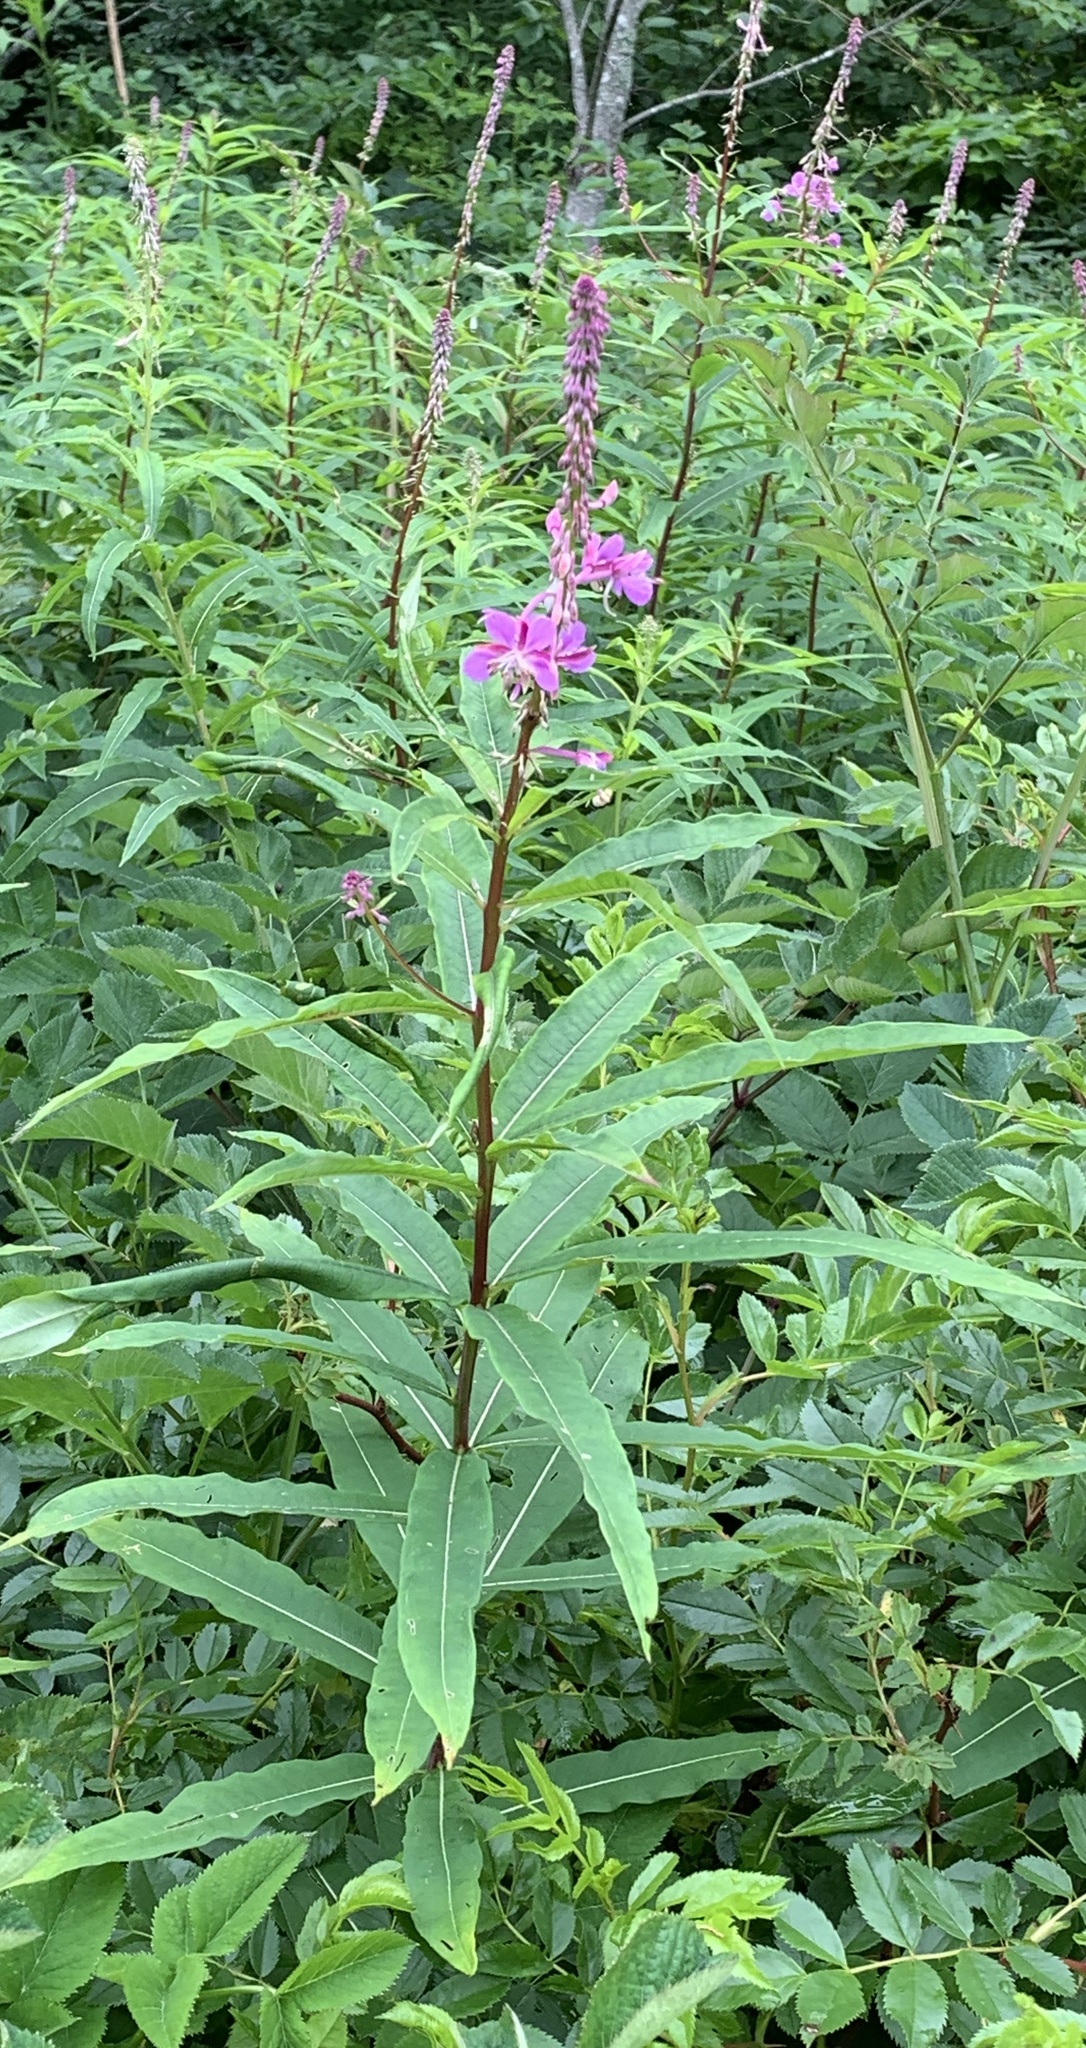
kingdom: Plantae
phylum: Tracheophyta
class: Magnoliopsida
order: Myrtales
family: Onagraceae
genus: Chamaenerion
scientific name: Chamaenerion angustifolium
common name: Fireweed
